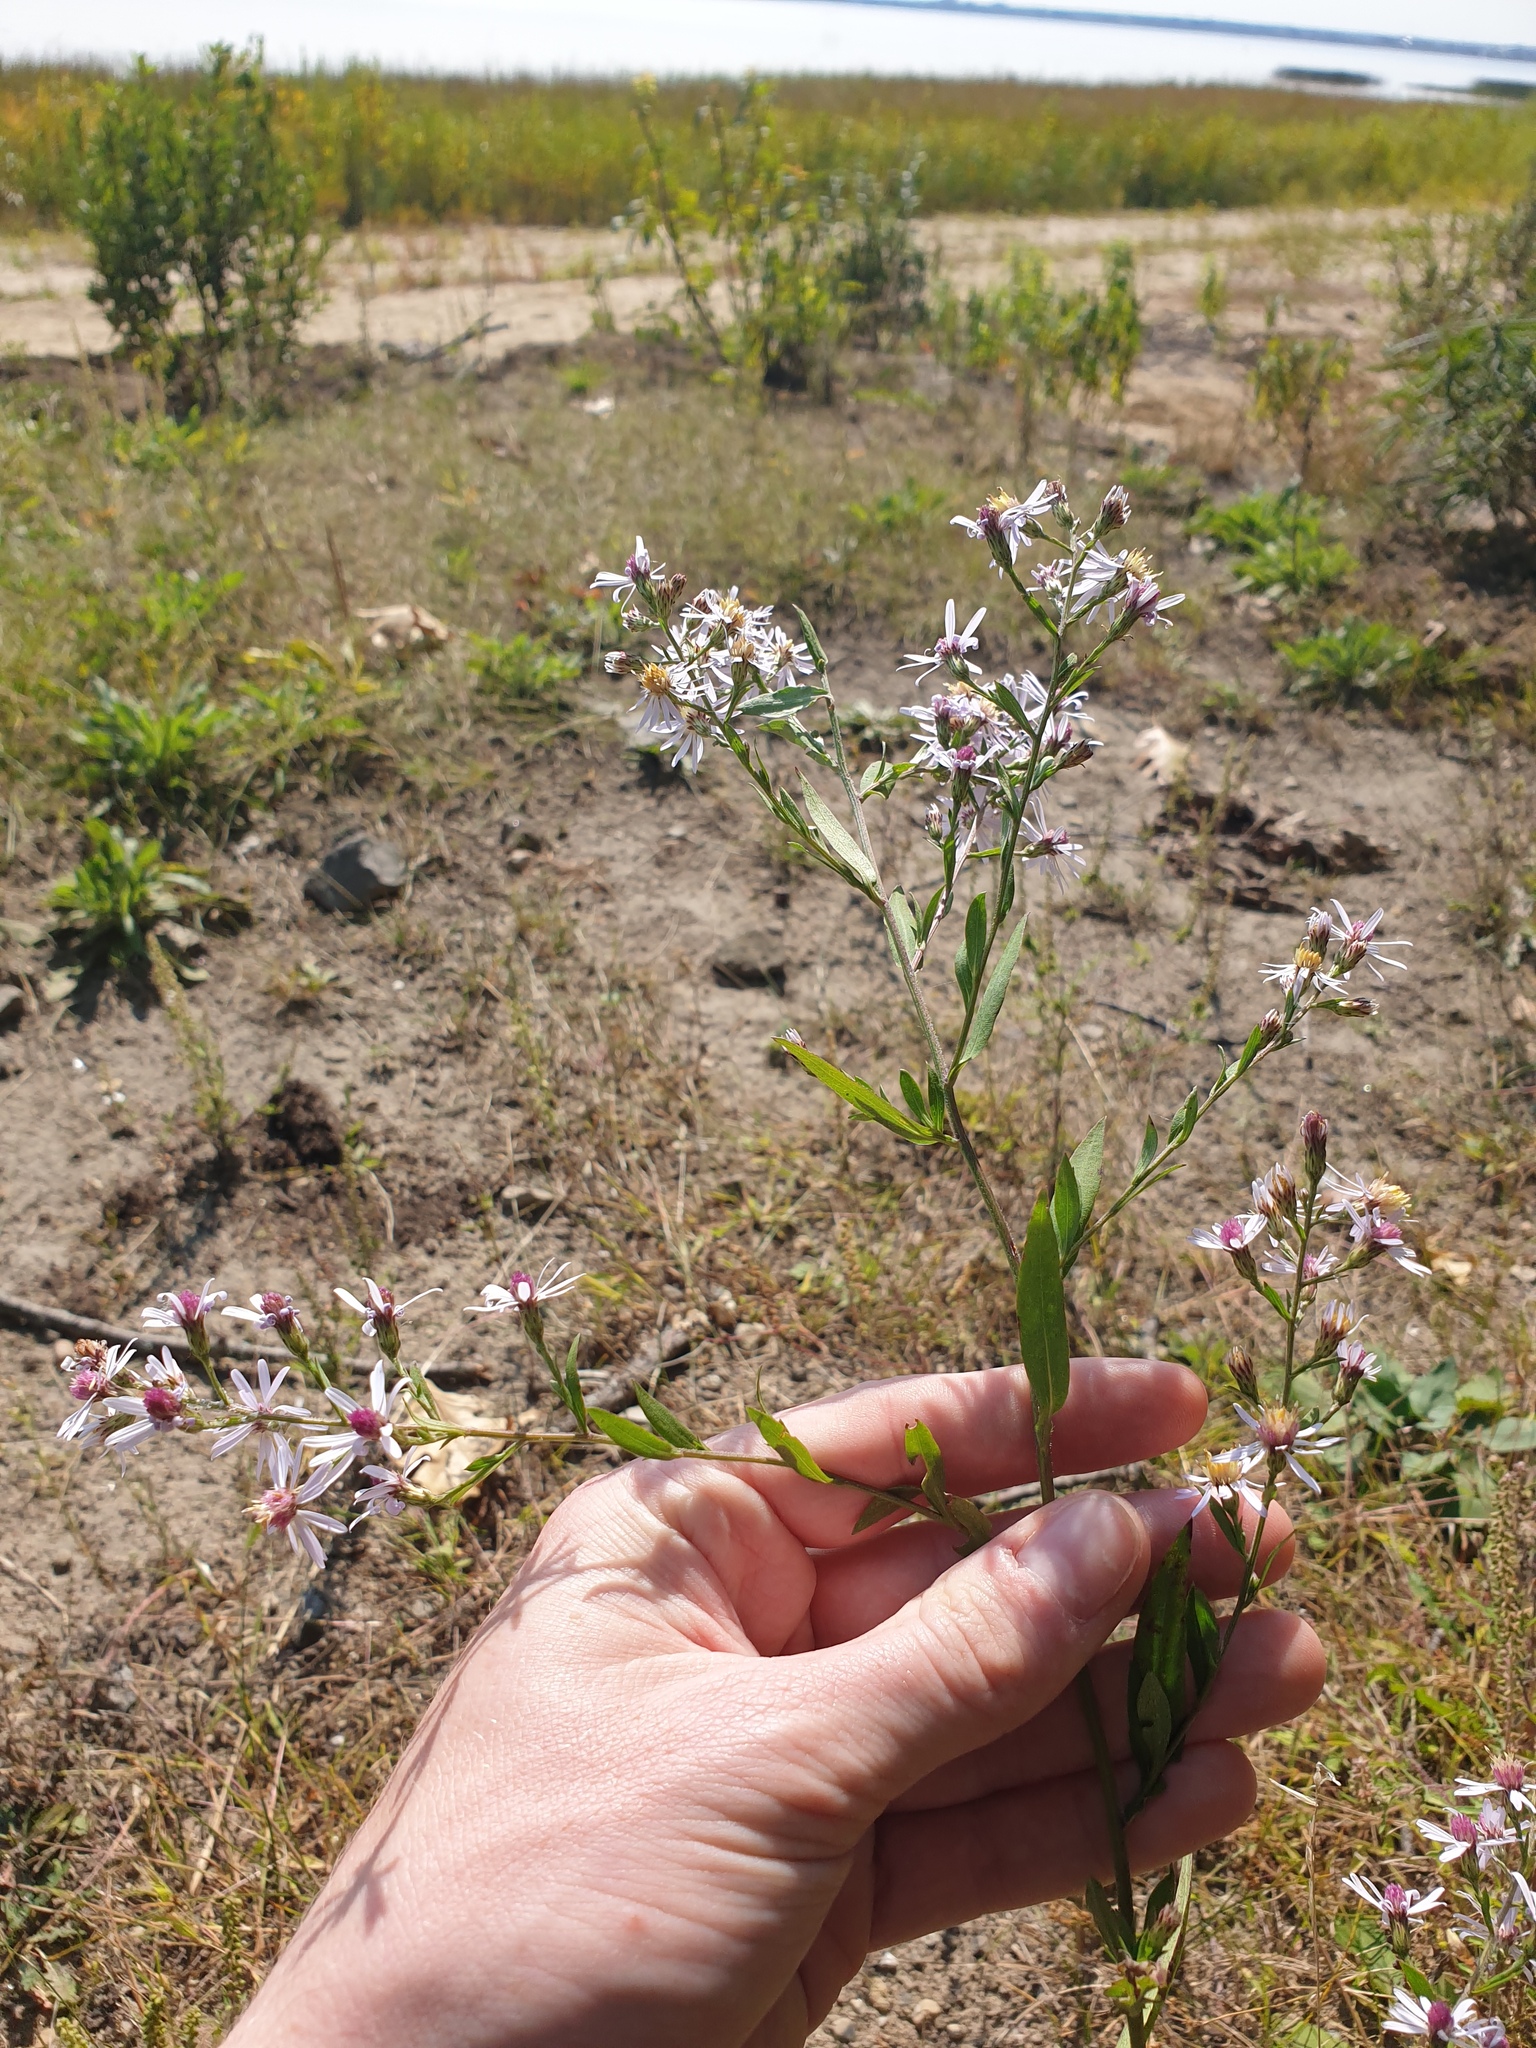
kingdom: Plantae
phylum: Tracheophyta
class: Magnoliopsida
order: Asterales
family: Asteraceae
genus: Symphyotrichum
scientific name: Symphyotrichum cordifolium
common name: Beeweed
